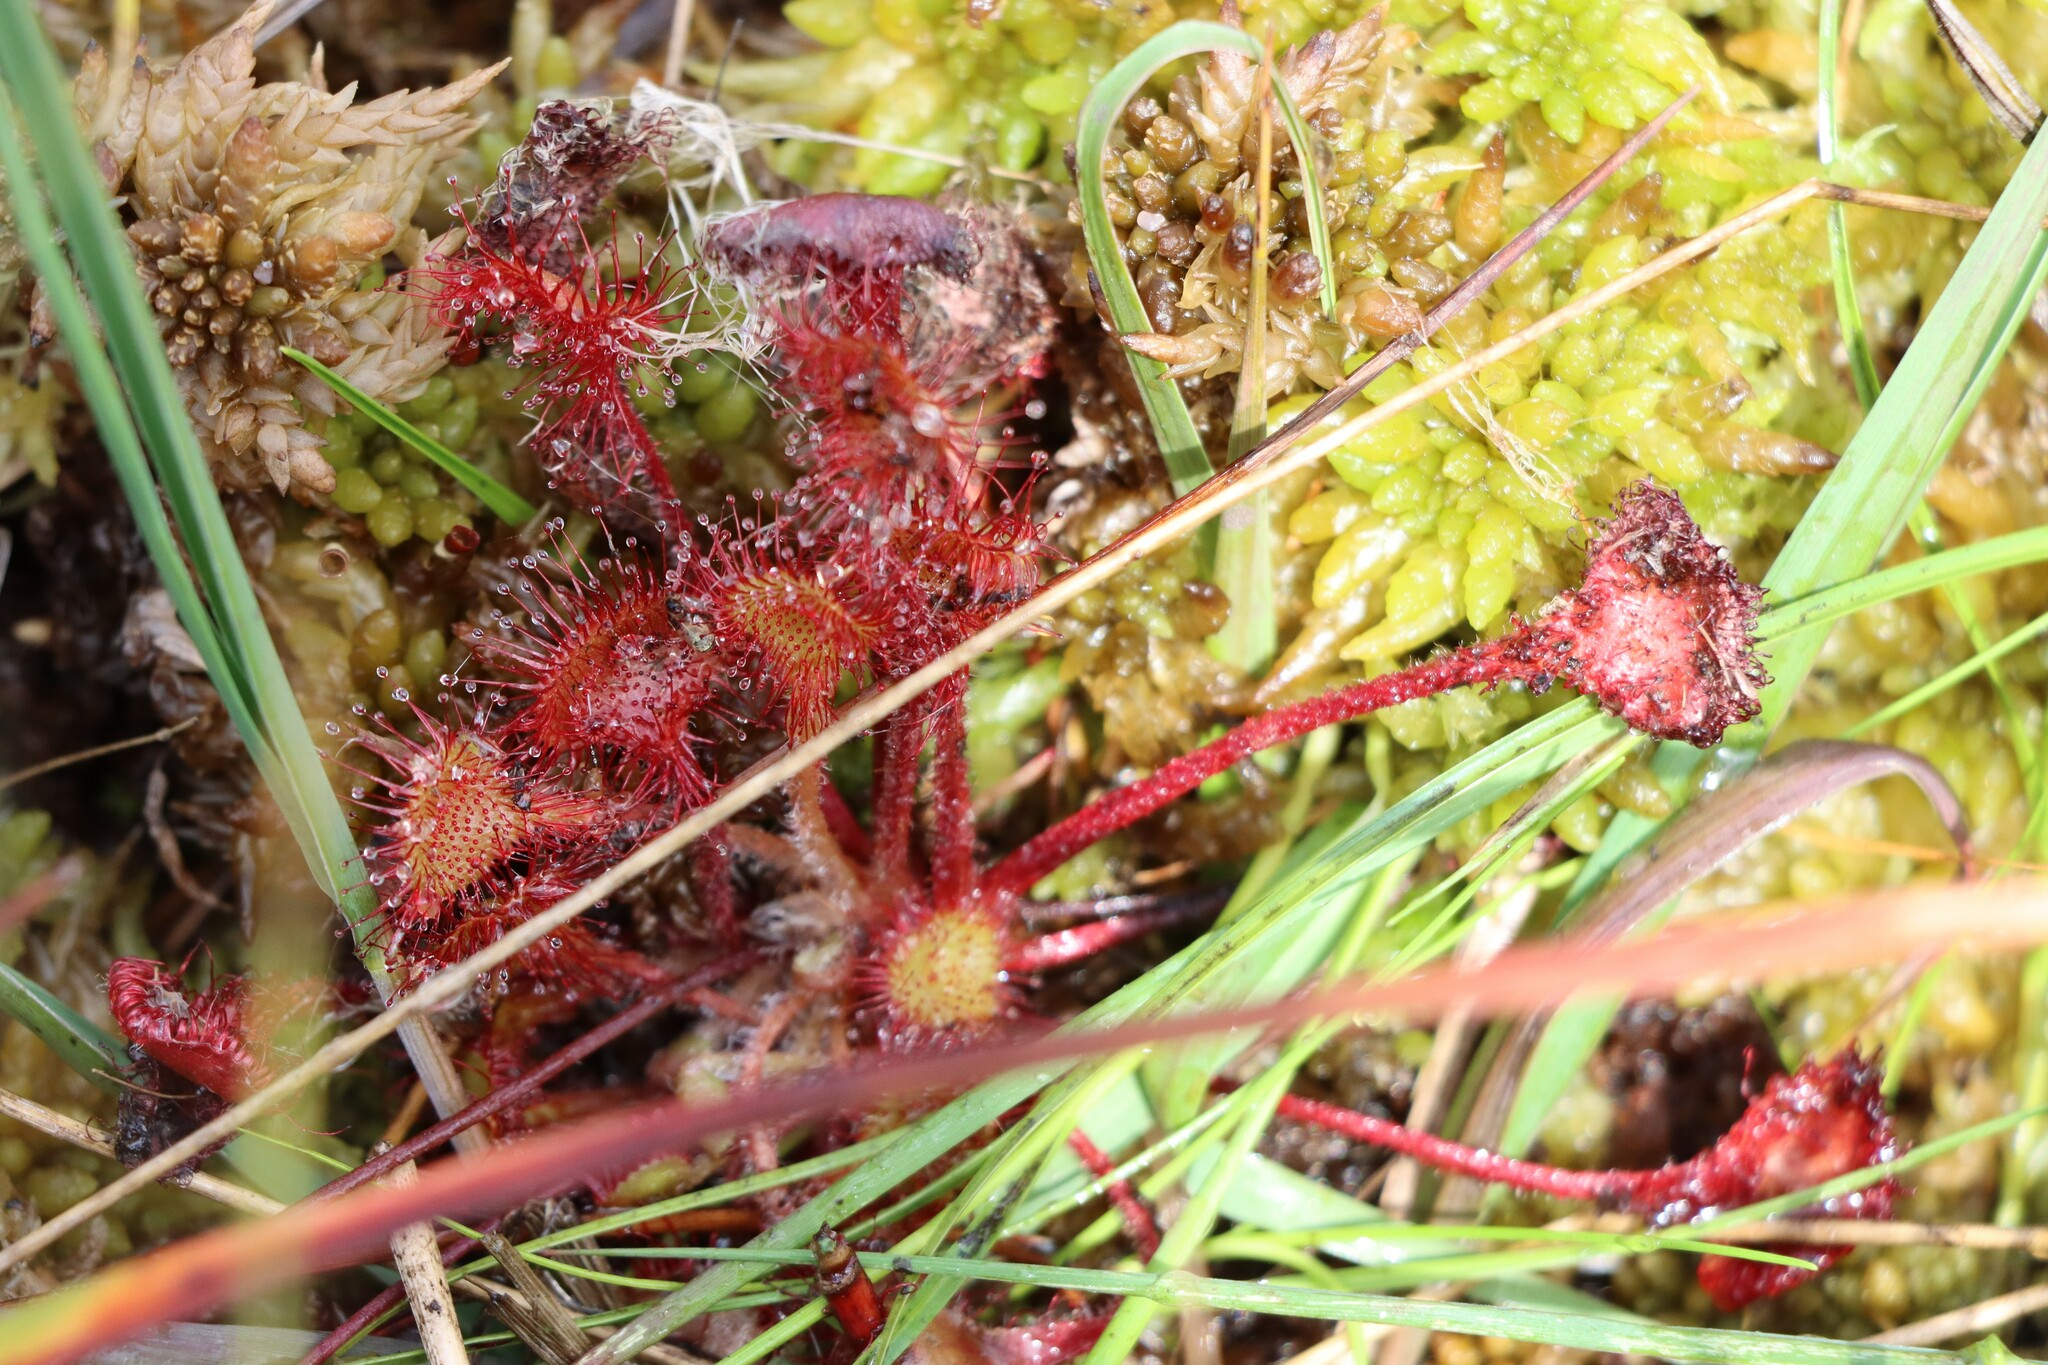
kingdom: Plantae
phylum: Tracheophyta
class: Magnoliopsida
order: Caryophyllales
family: Droseraceae
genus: Drosera
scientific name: Drosera rotundifolia
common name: Round-leaved sundew
